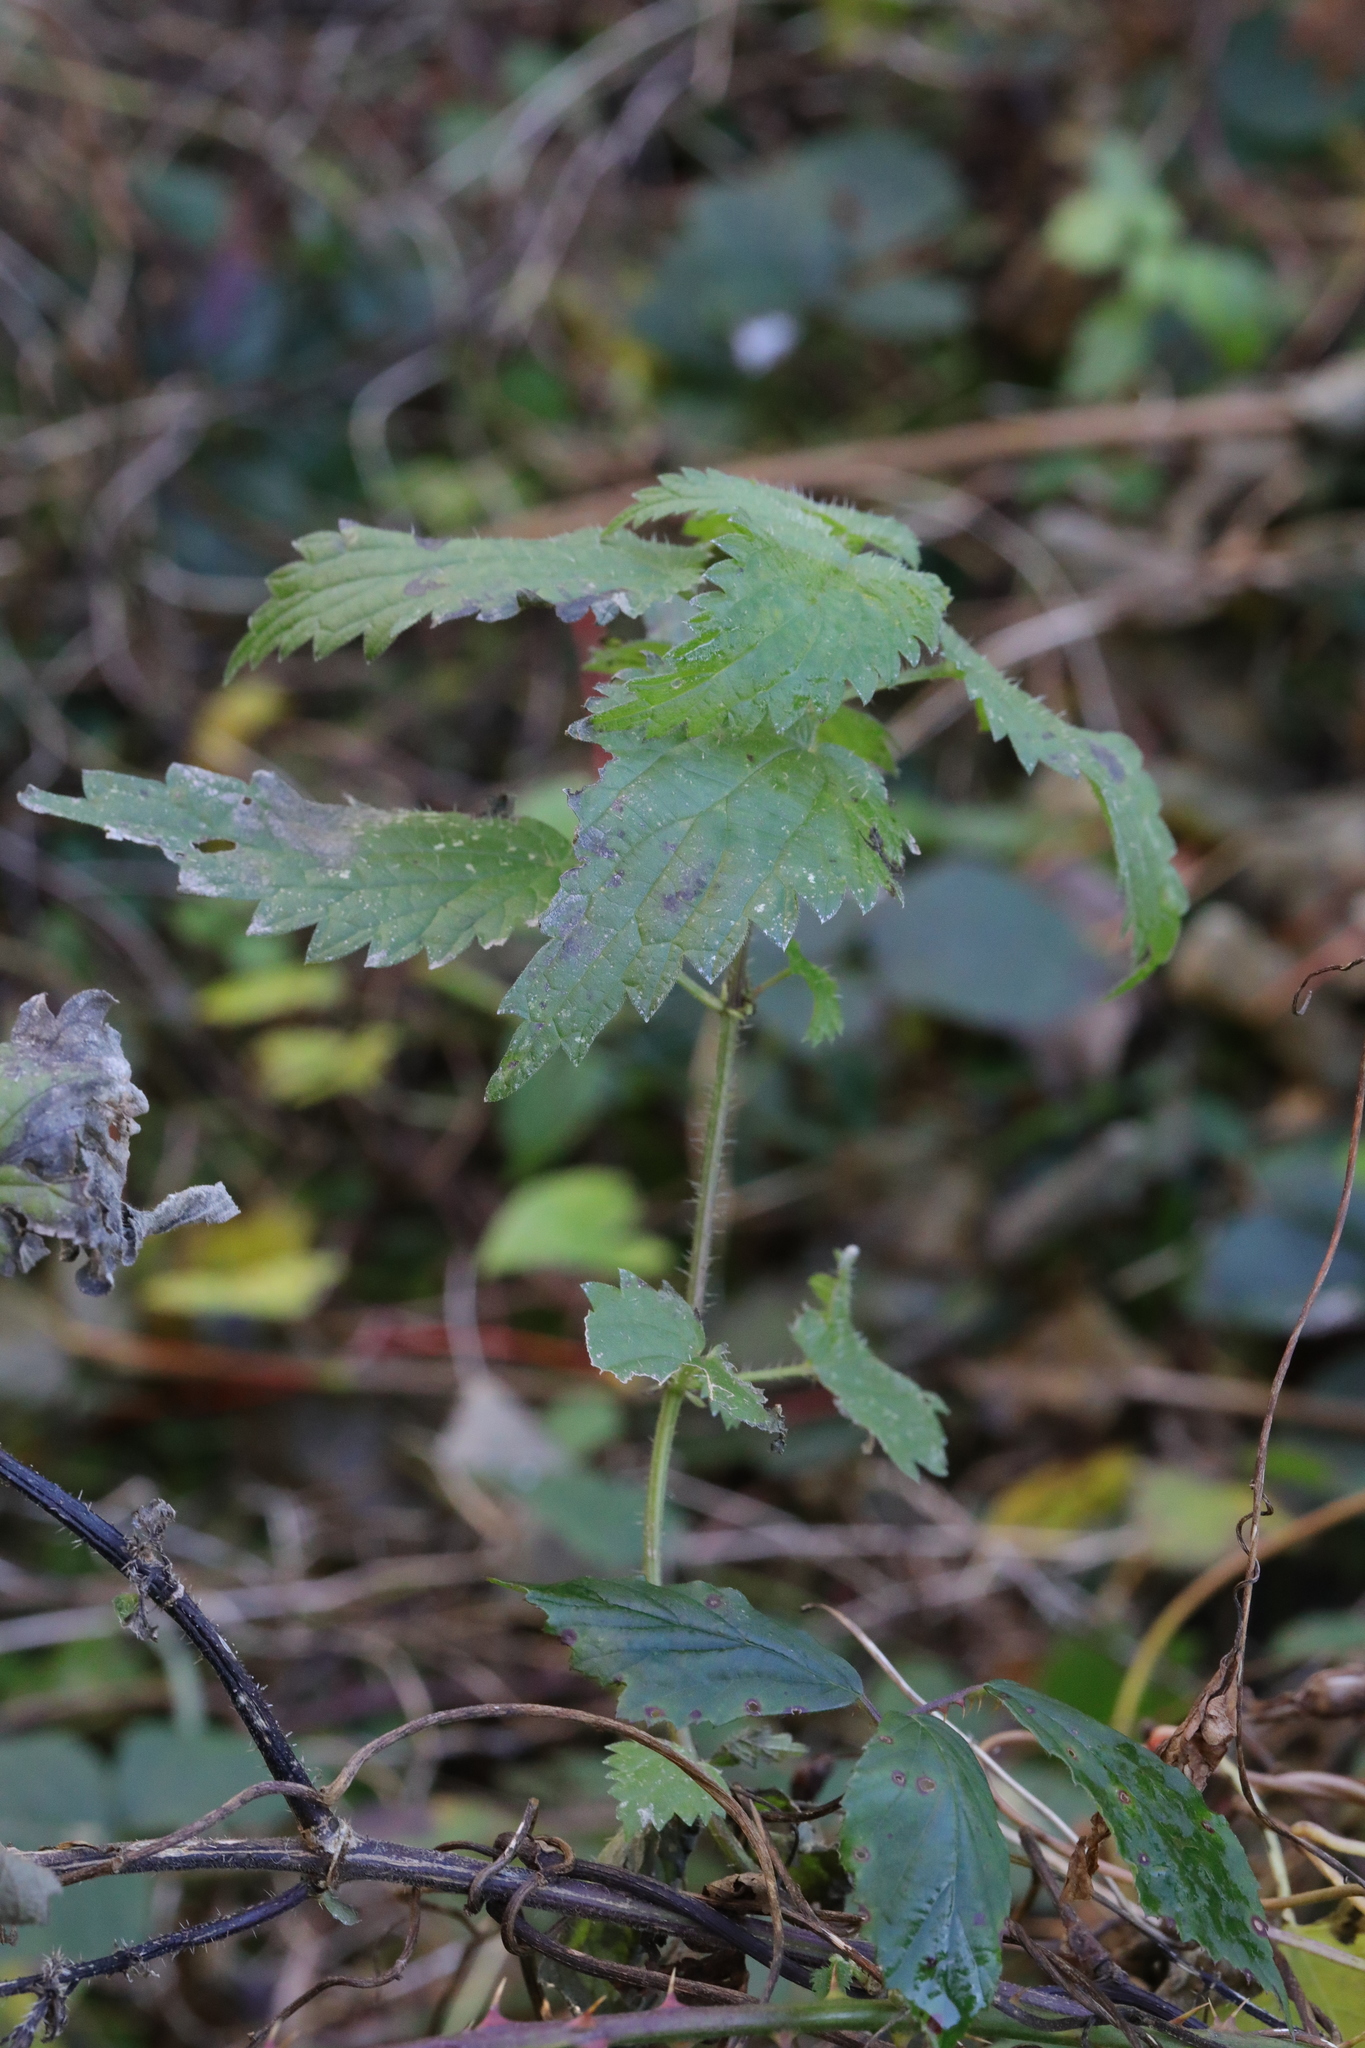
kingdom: Plantae
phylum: Tracheophyta
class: Magnoliopsida
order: Rosales
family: Urticaceae
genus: Urtica
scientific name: Urtica dioica
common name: Common nettle
